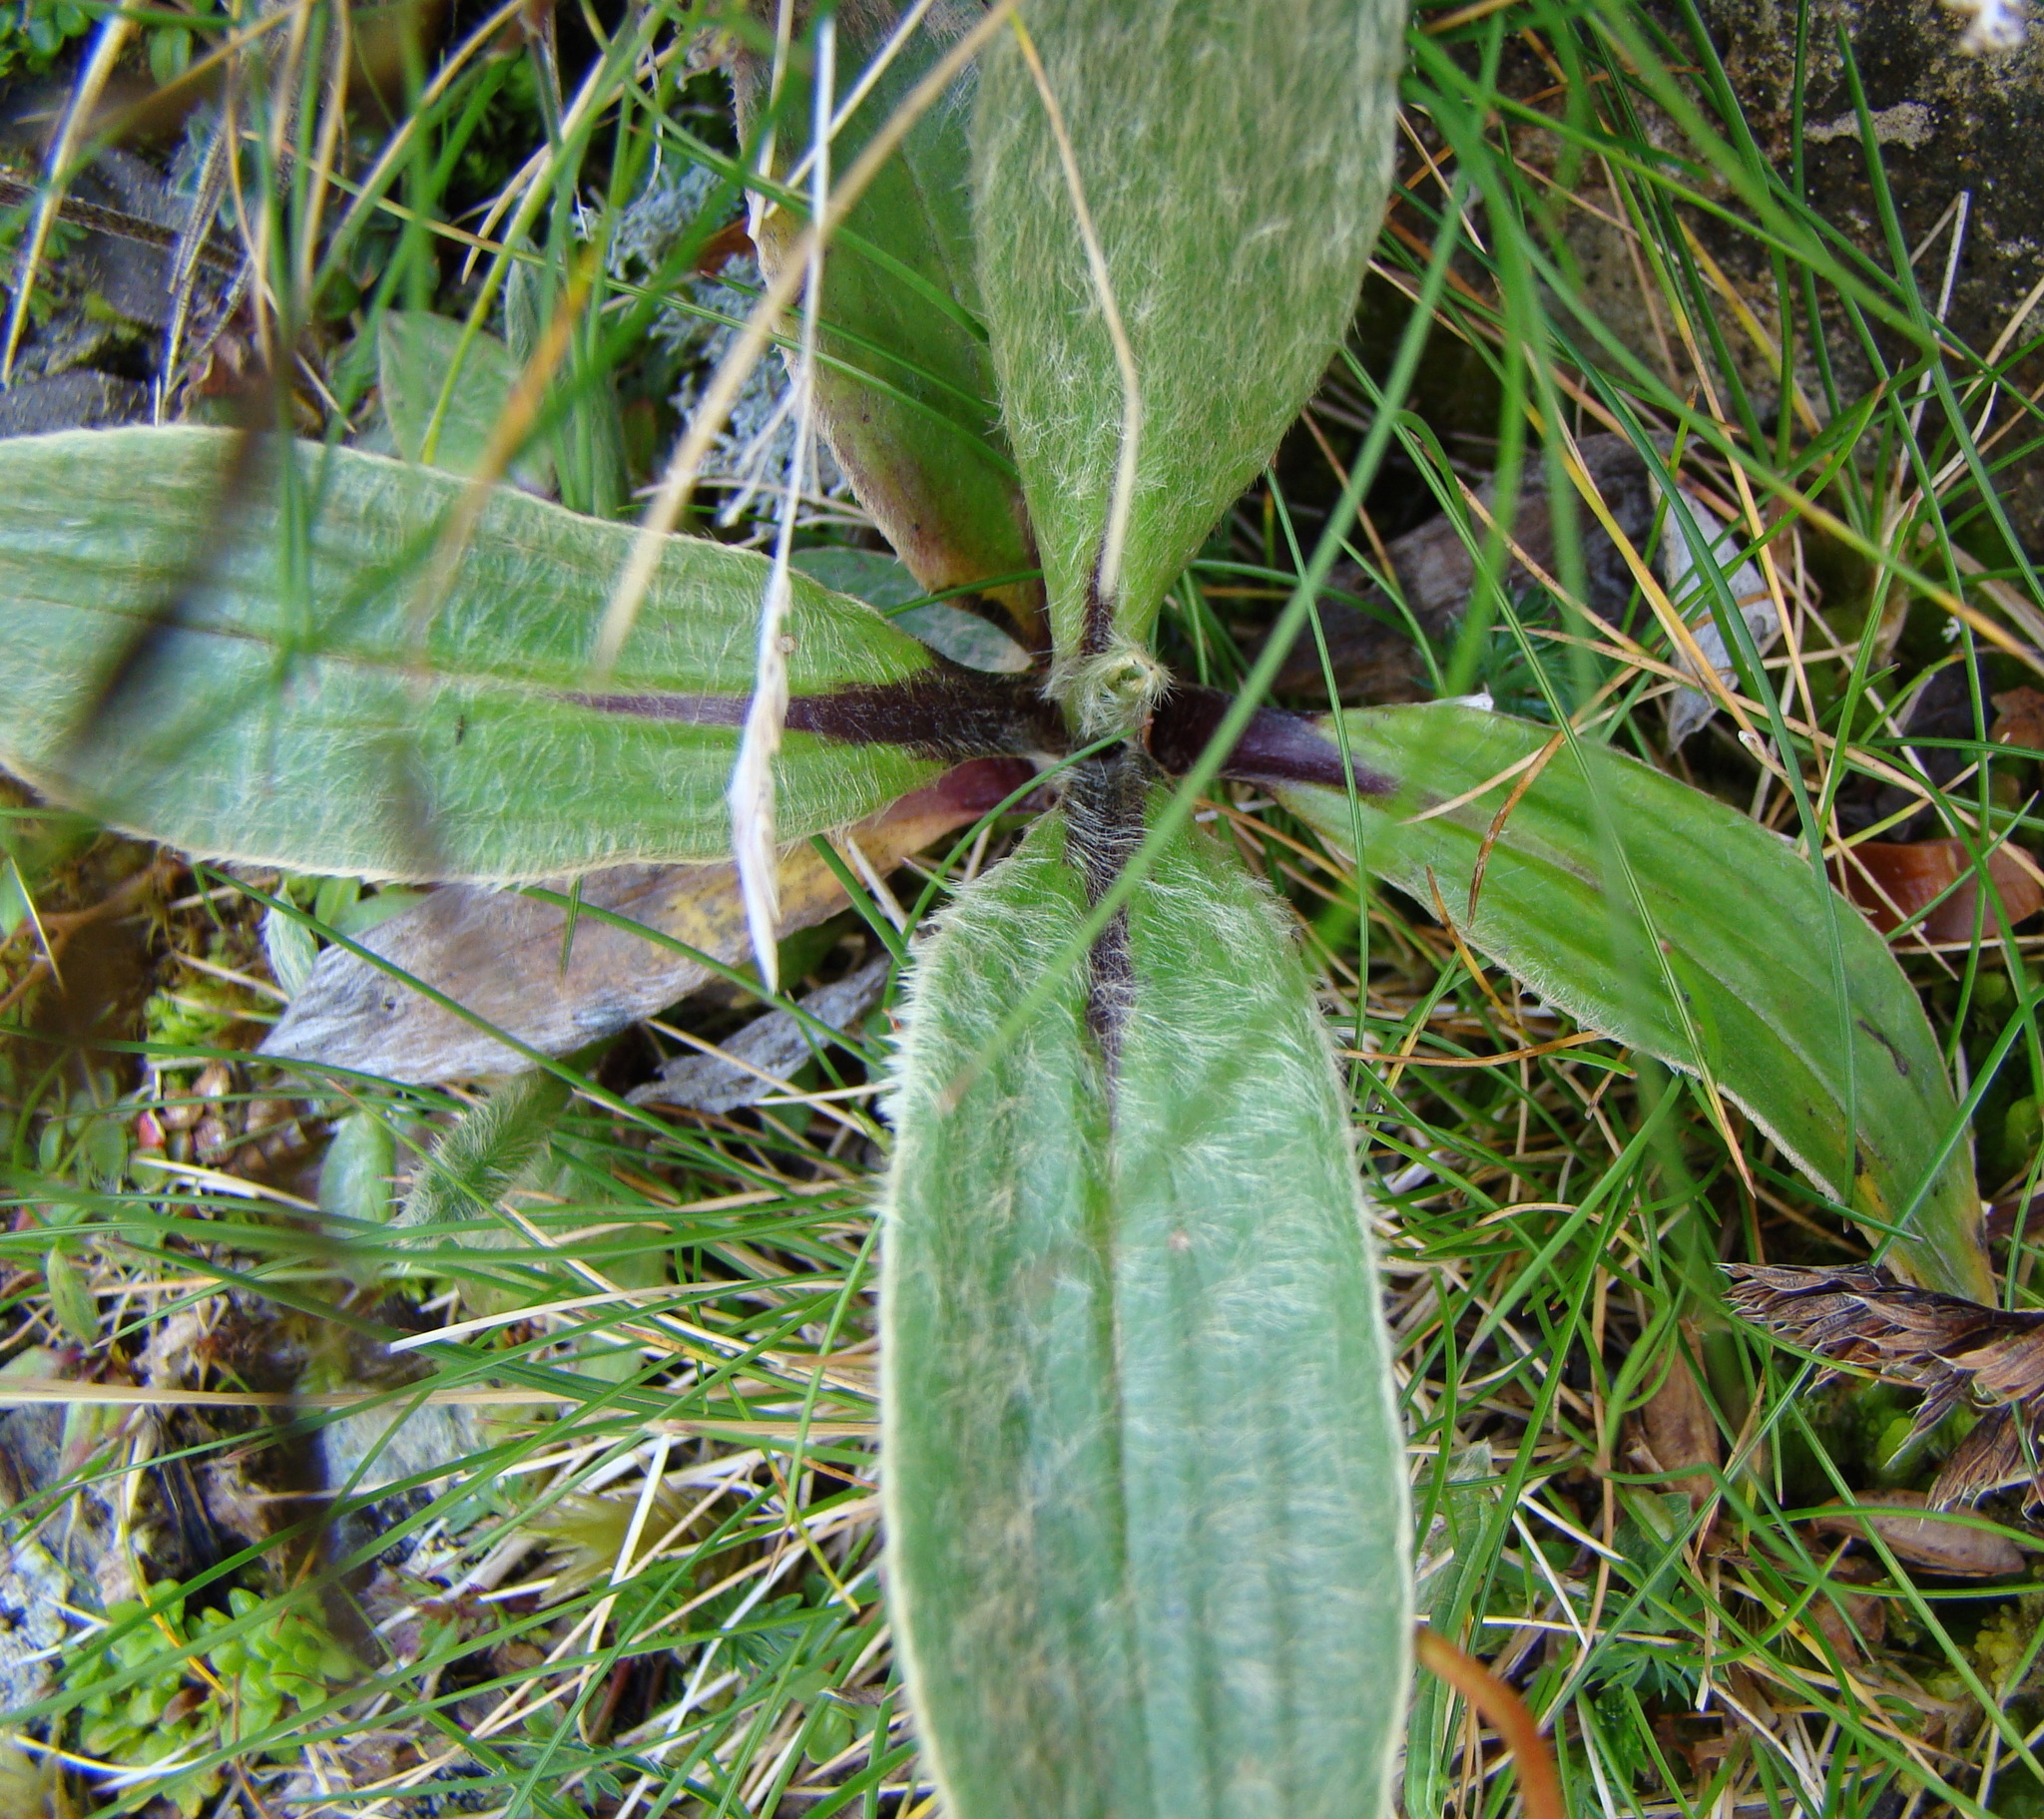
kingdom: Plantae
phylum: Tracheophyta
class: Magnoliopsida
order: Asterales
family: Asteraceae
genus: Celmisia
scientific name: Celmisia verbascifolia
